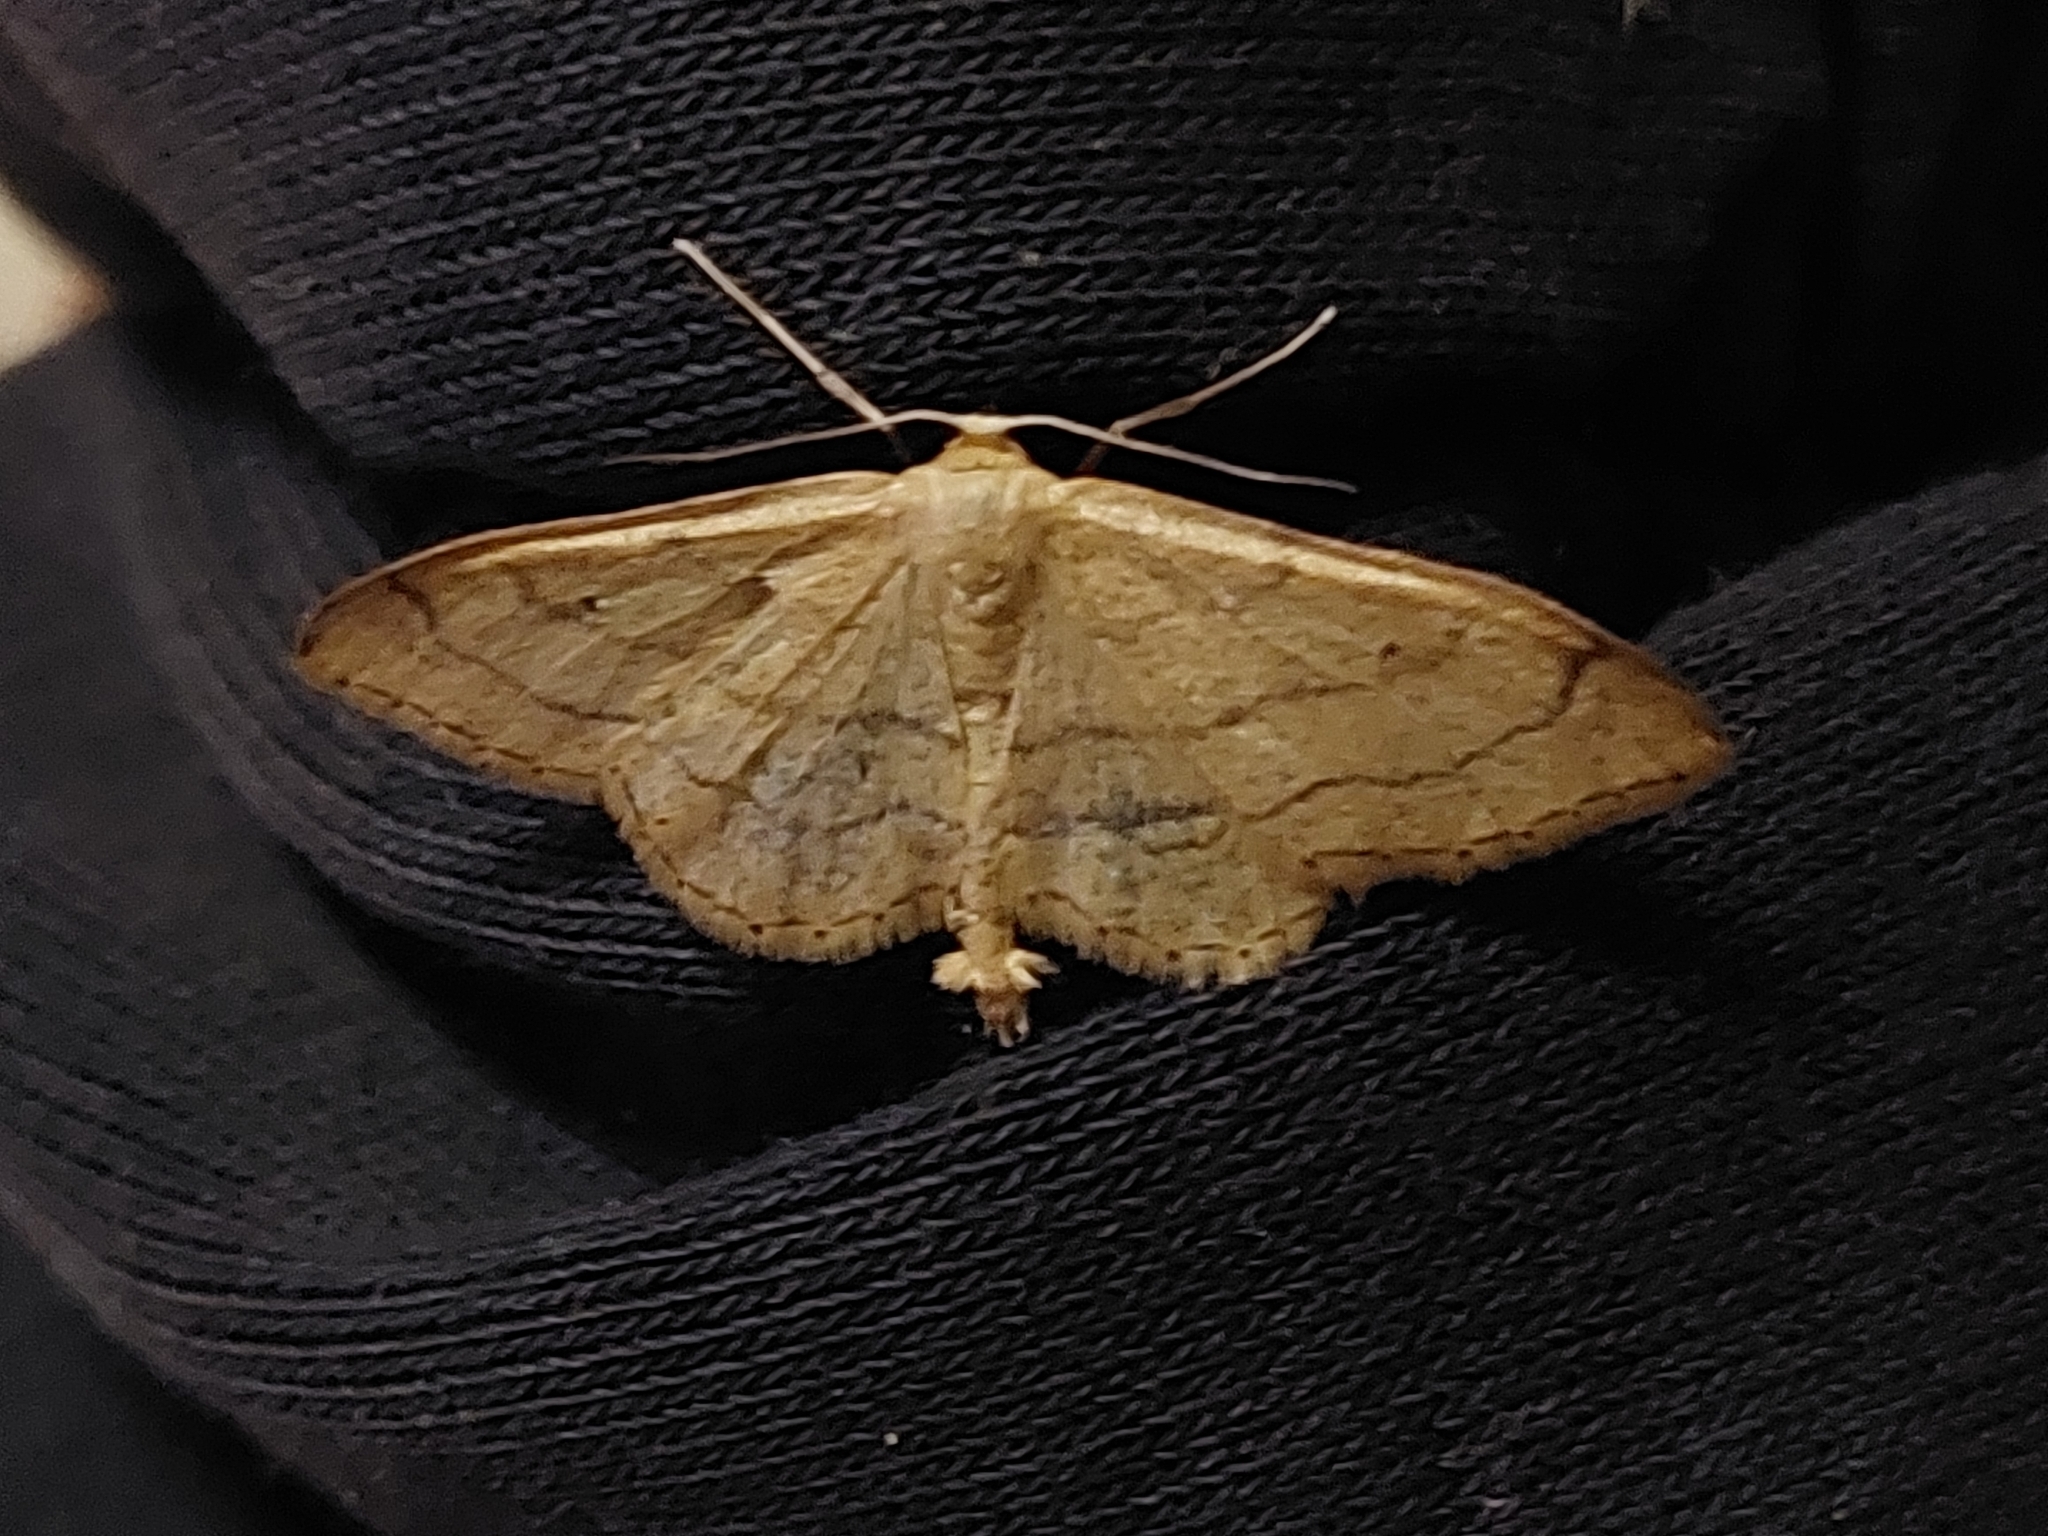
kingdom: Animalia
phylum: Arthropoda
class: Insecta
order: Lepidoptera
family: Geometridae
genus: Idaea
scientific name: Idaea aversata
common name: Riband wave
